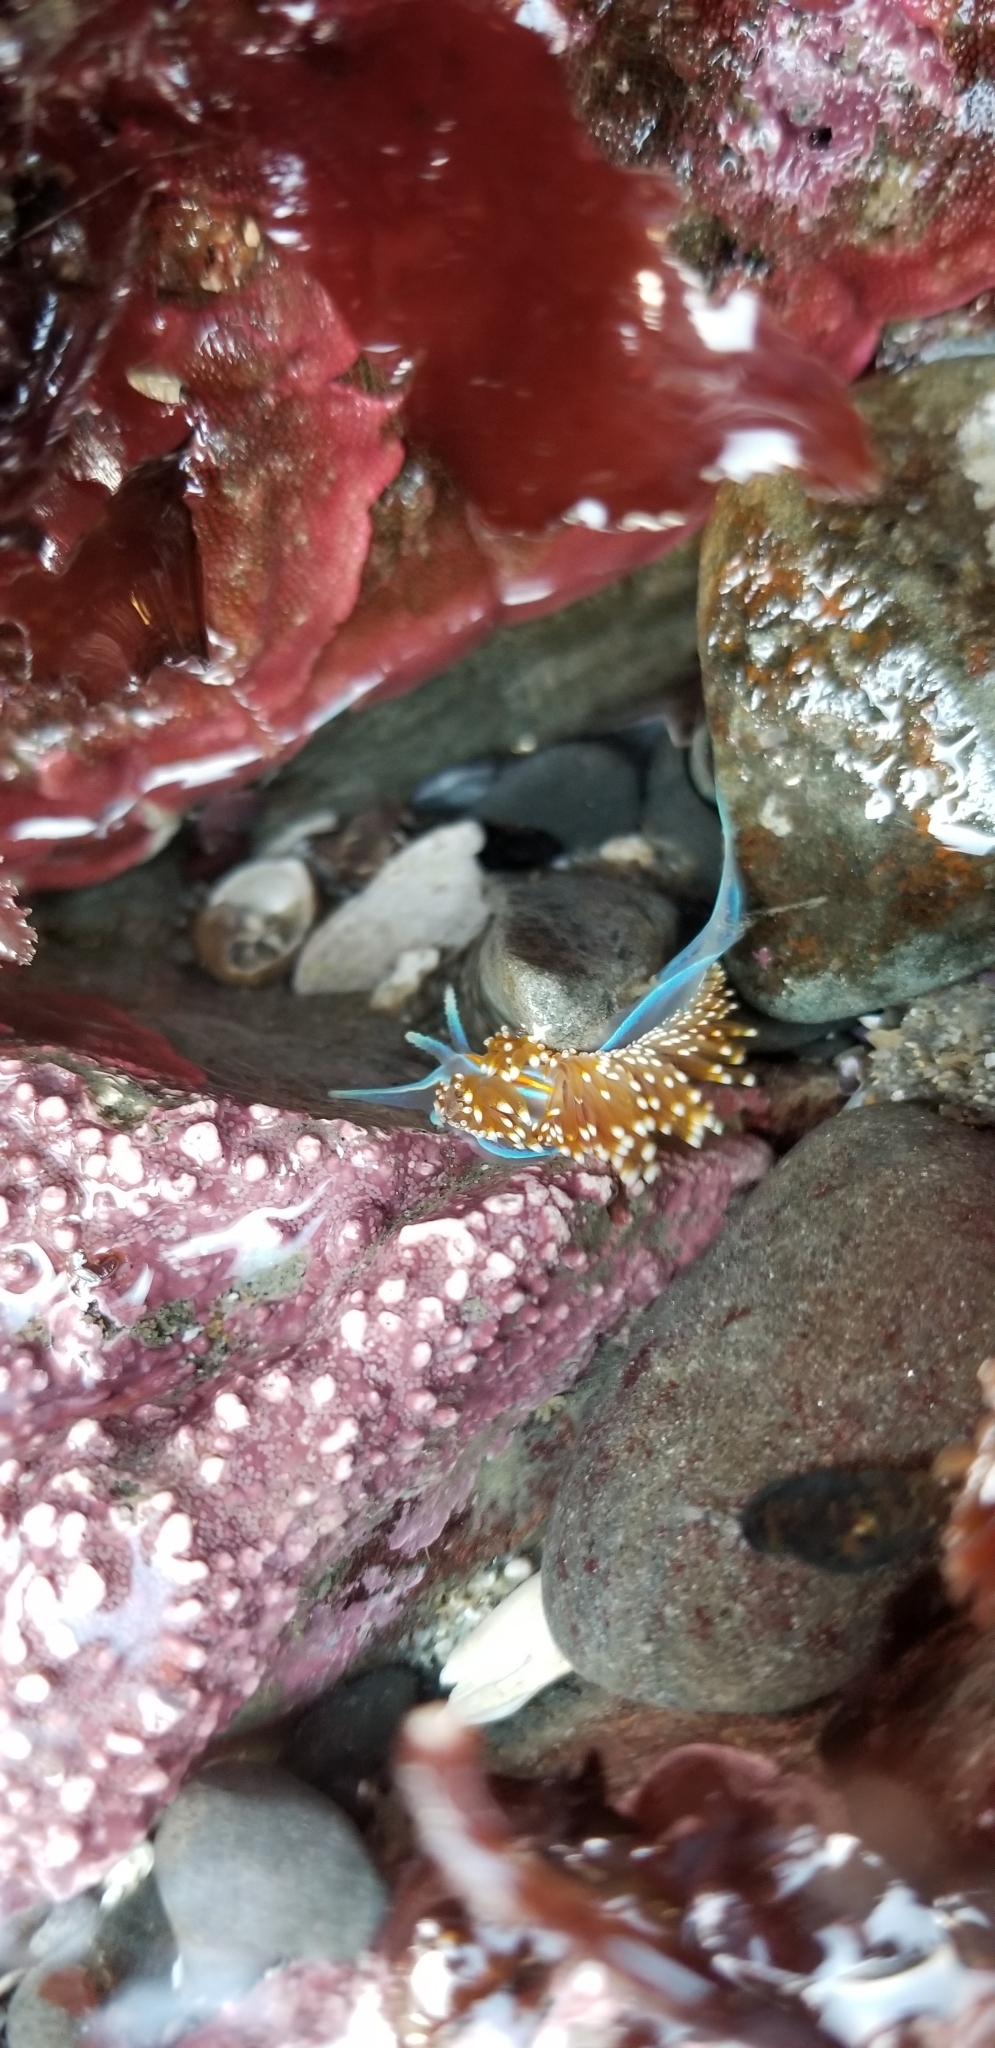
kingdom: Animalia
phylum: Mollusca
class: Gastropoda
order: Nudibranchia
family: Myrrhinidae
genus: Hermissenda
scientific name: Hermissenda opalescens
